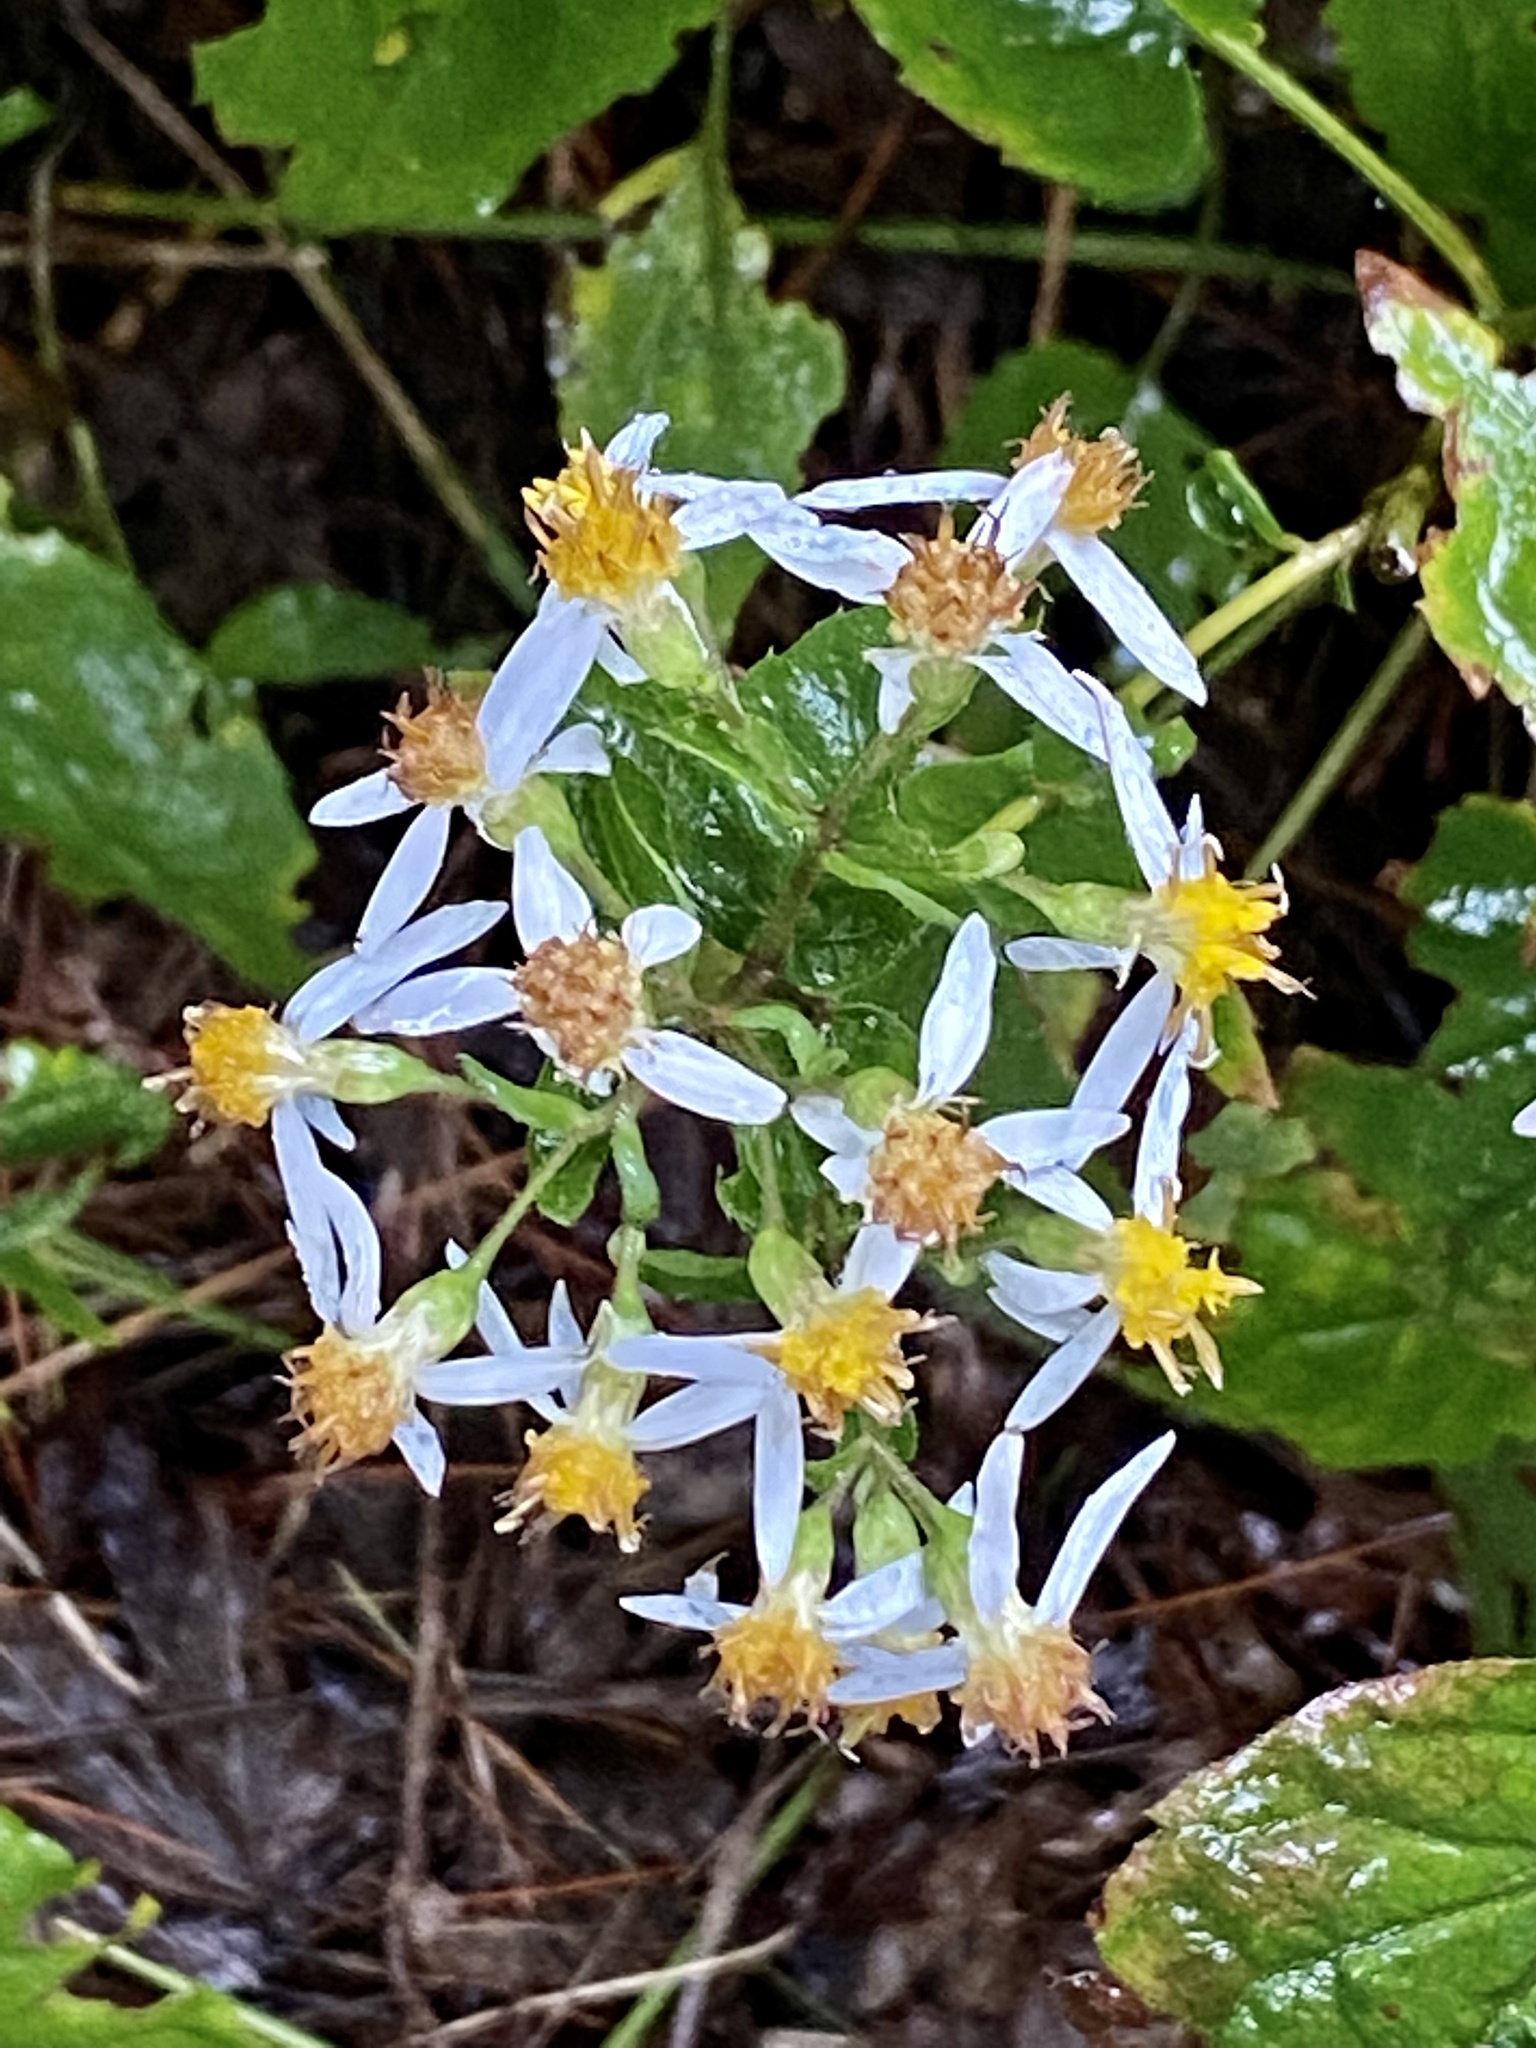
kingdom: Plantae
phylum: Tracheophyta
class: Magnoliopsida
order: Asterales
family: Asteraceae
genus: Eurybia
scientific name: Eurybia divaricata
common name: White wood aster
